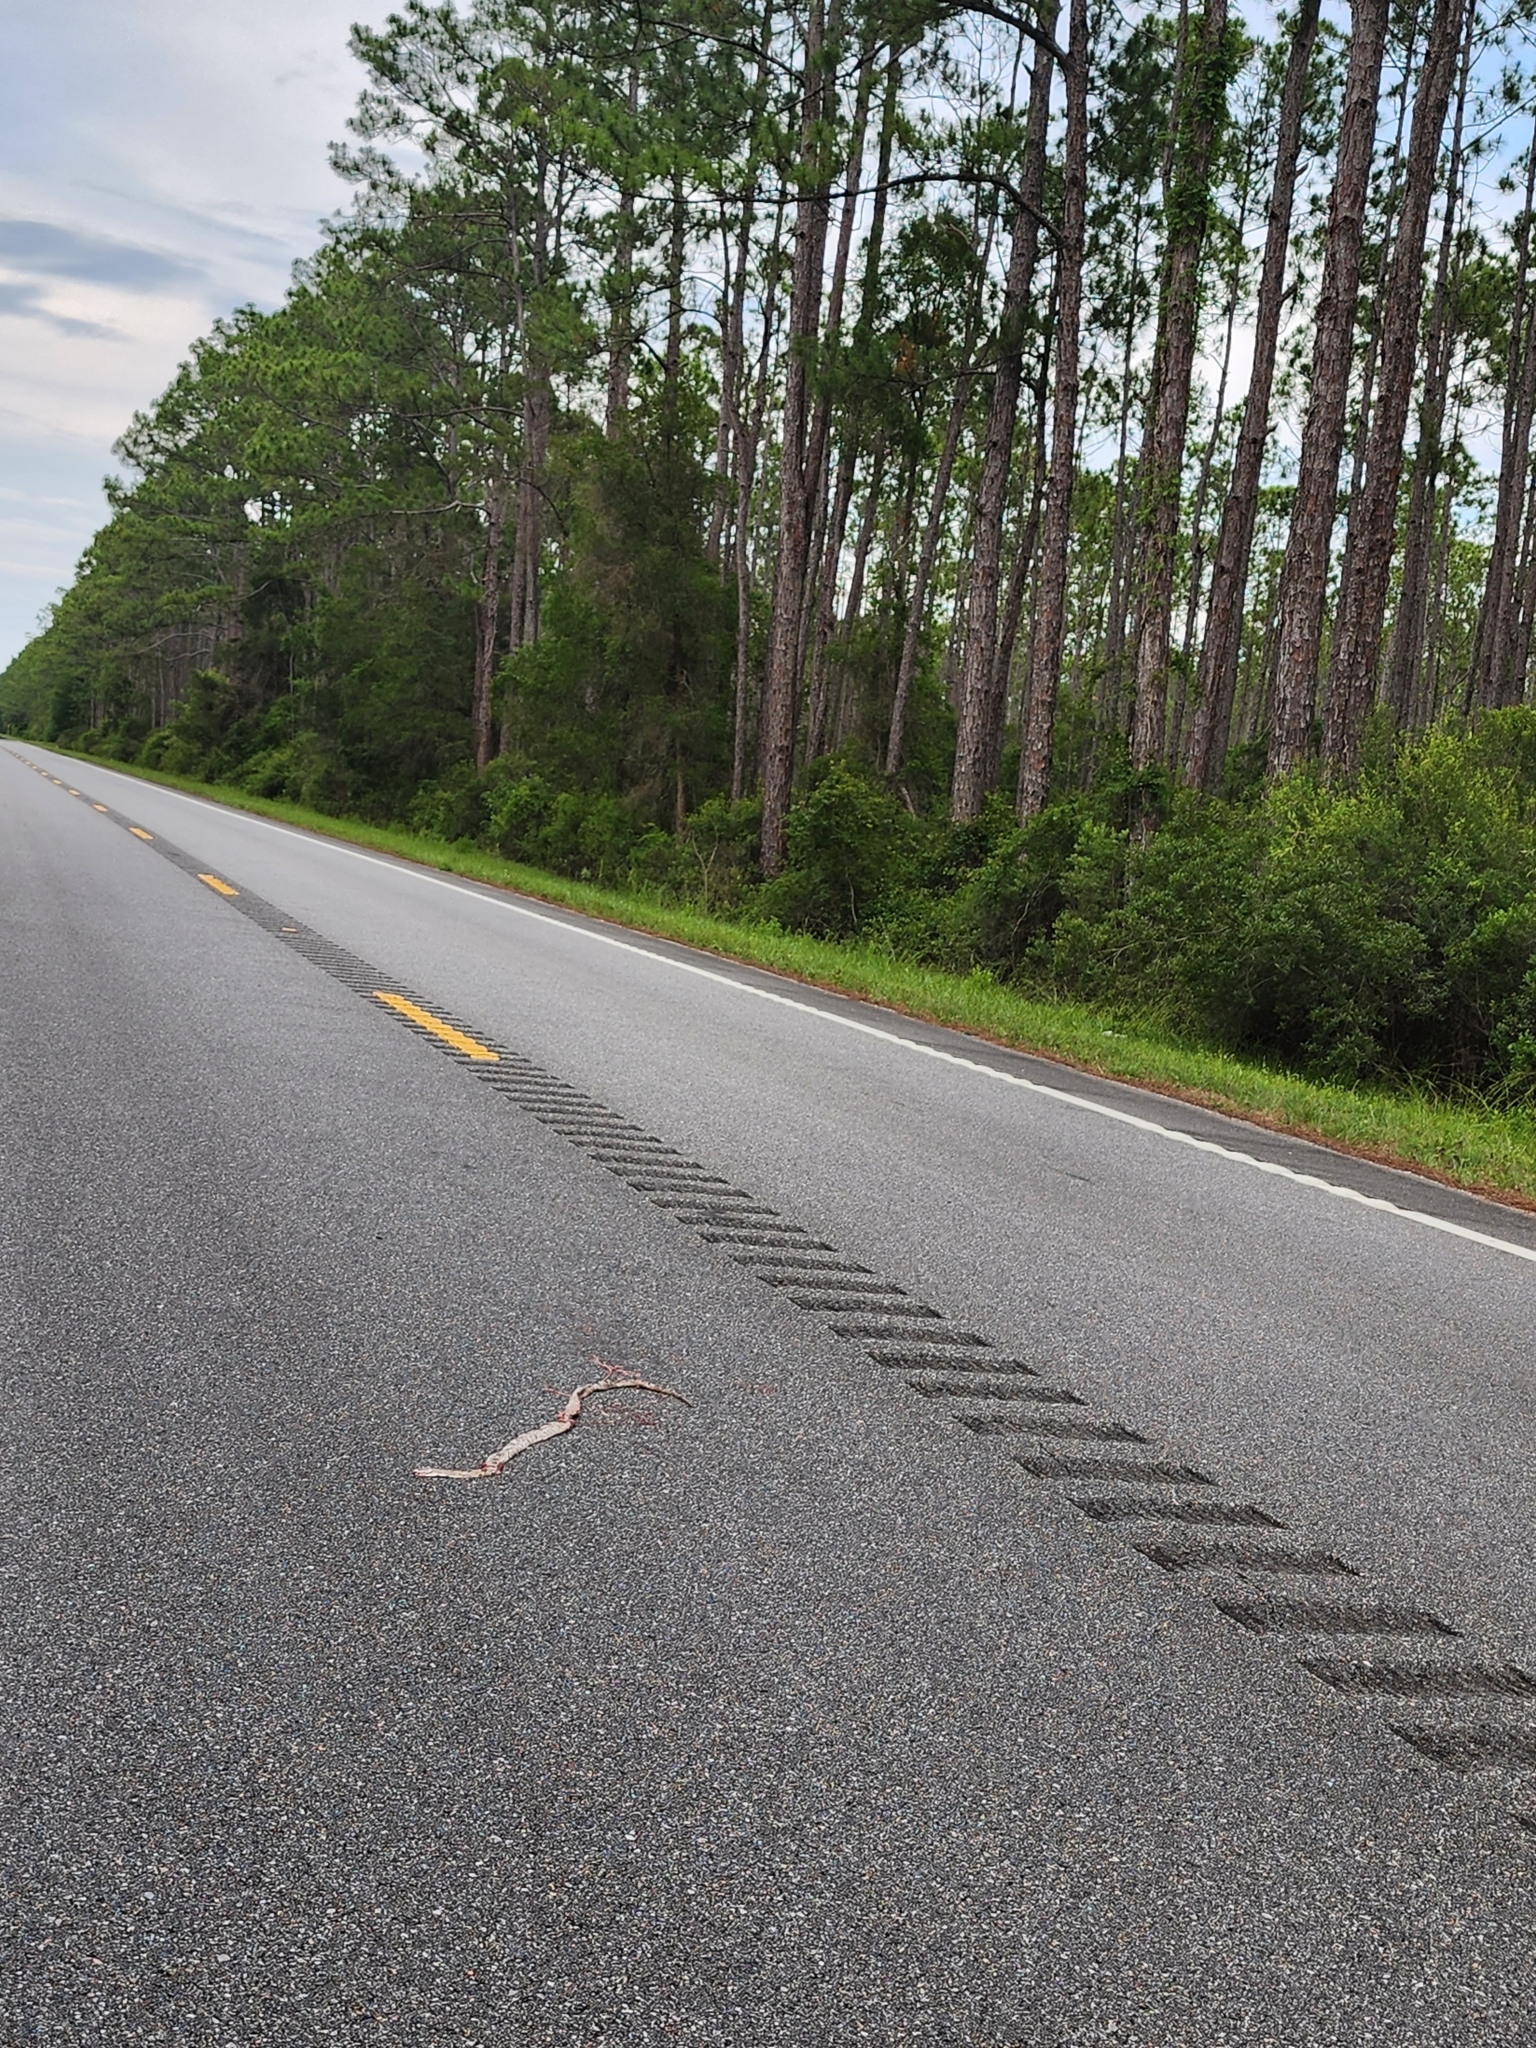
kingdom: Animalia
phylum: Chordata
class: Squamata
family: Colubridae
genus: Pantherophis
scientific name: Pantherophis spiloides
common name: Gray rat snake
